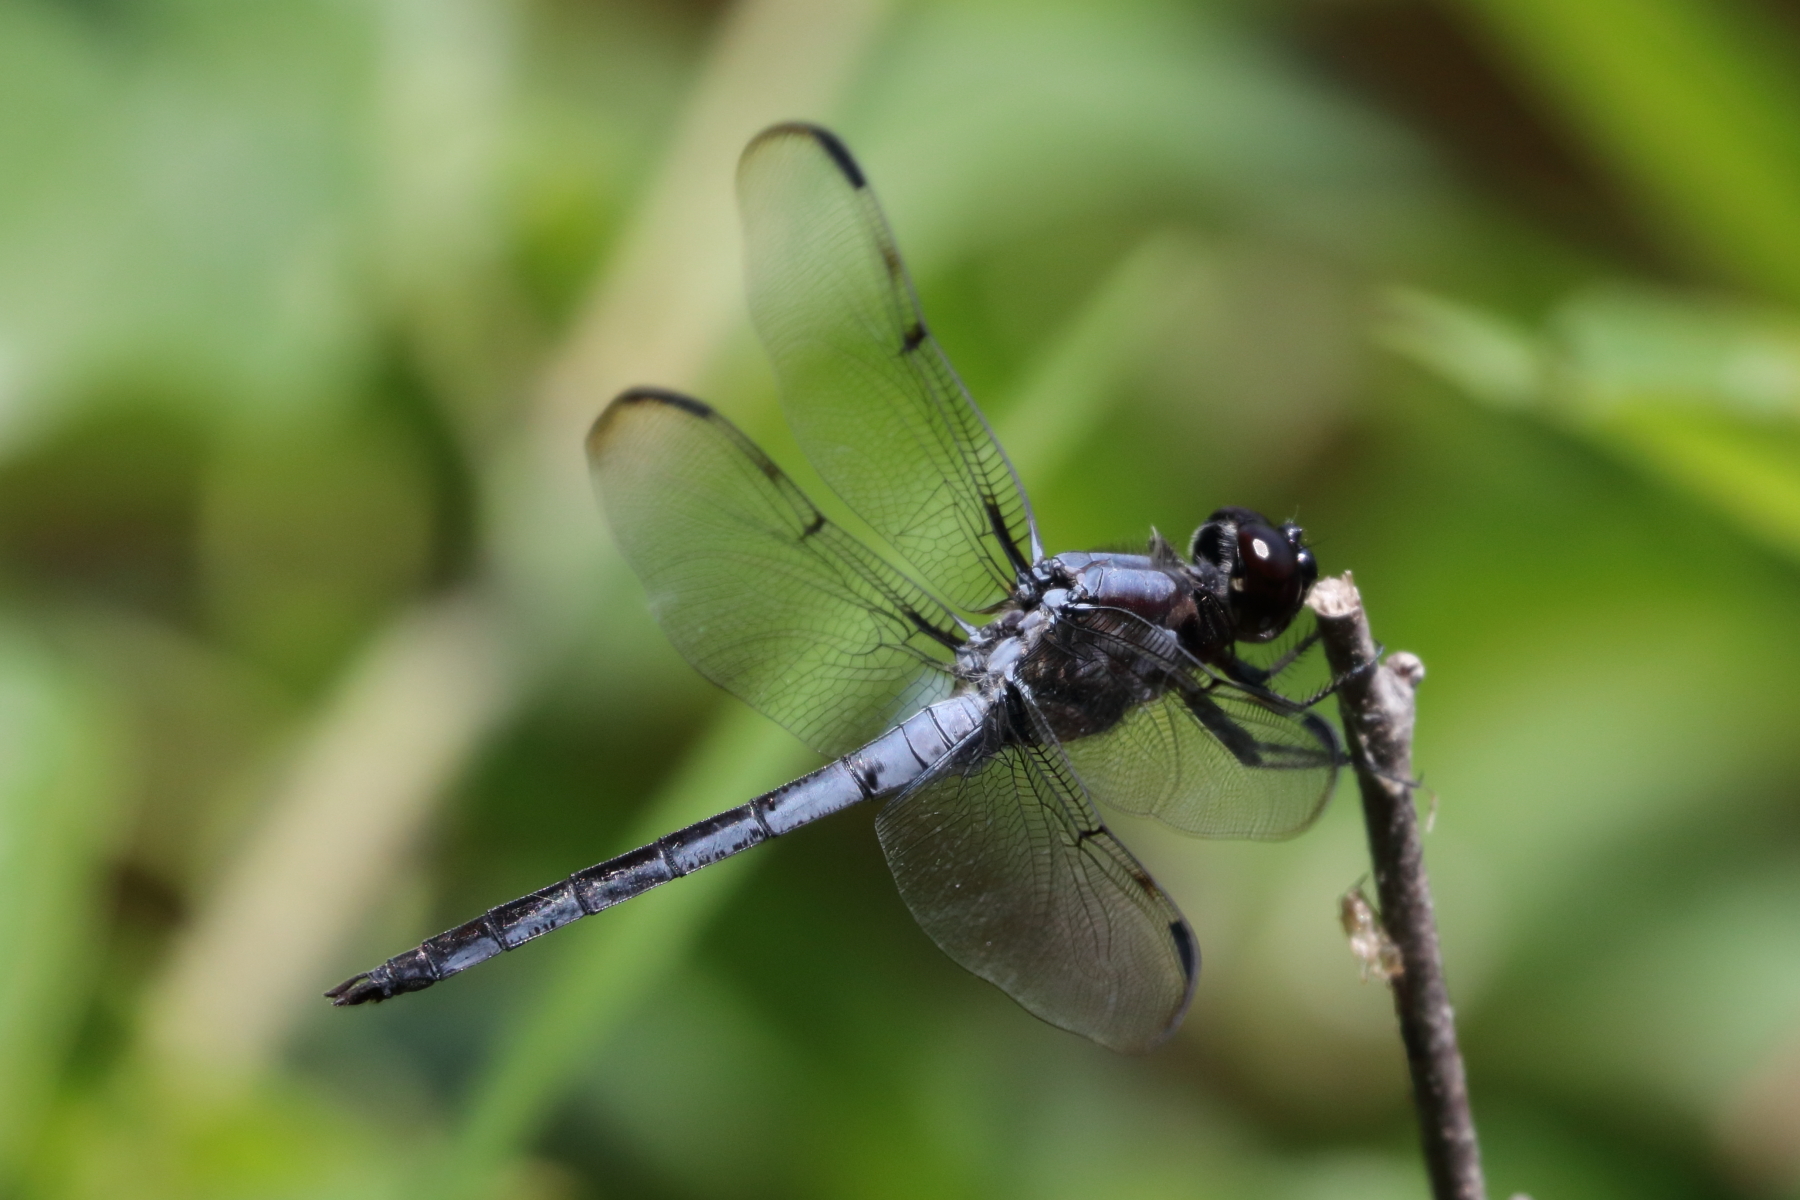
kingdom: Animalia
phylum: Arthropoda
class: Insecta
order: Odonata
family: Libellulidae
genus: Libellula
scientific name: Libellula axilena
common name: Bar-winged skimmer
